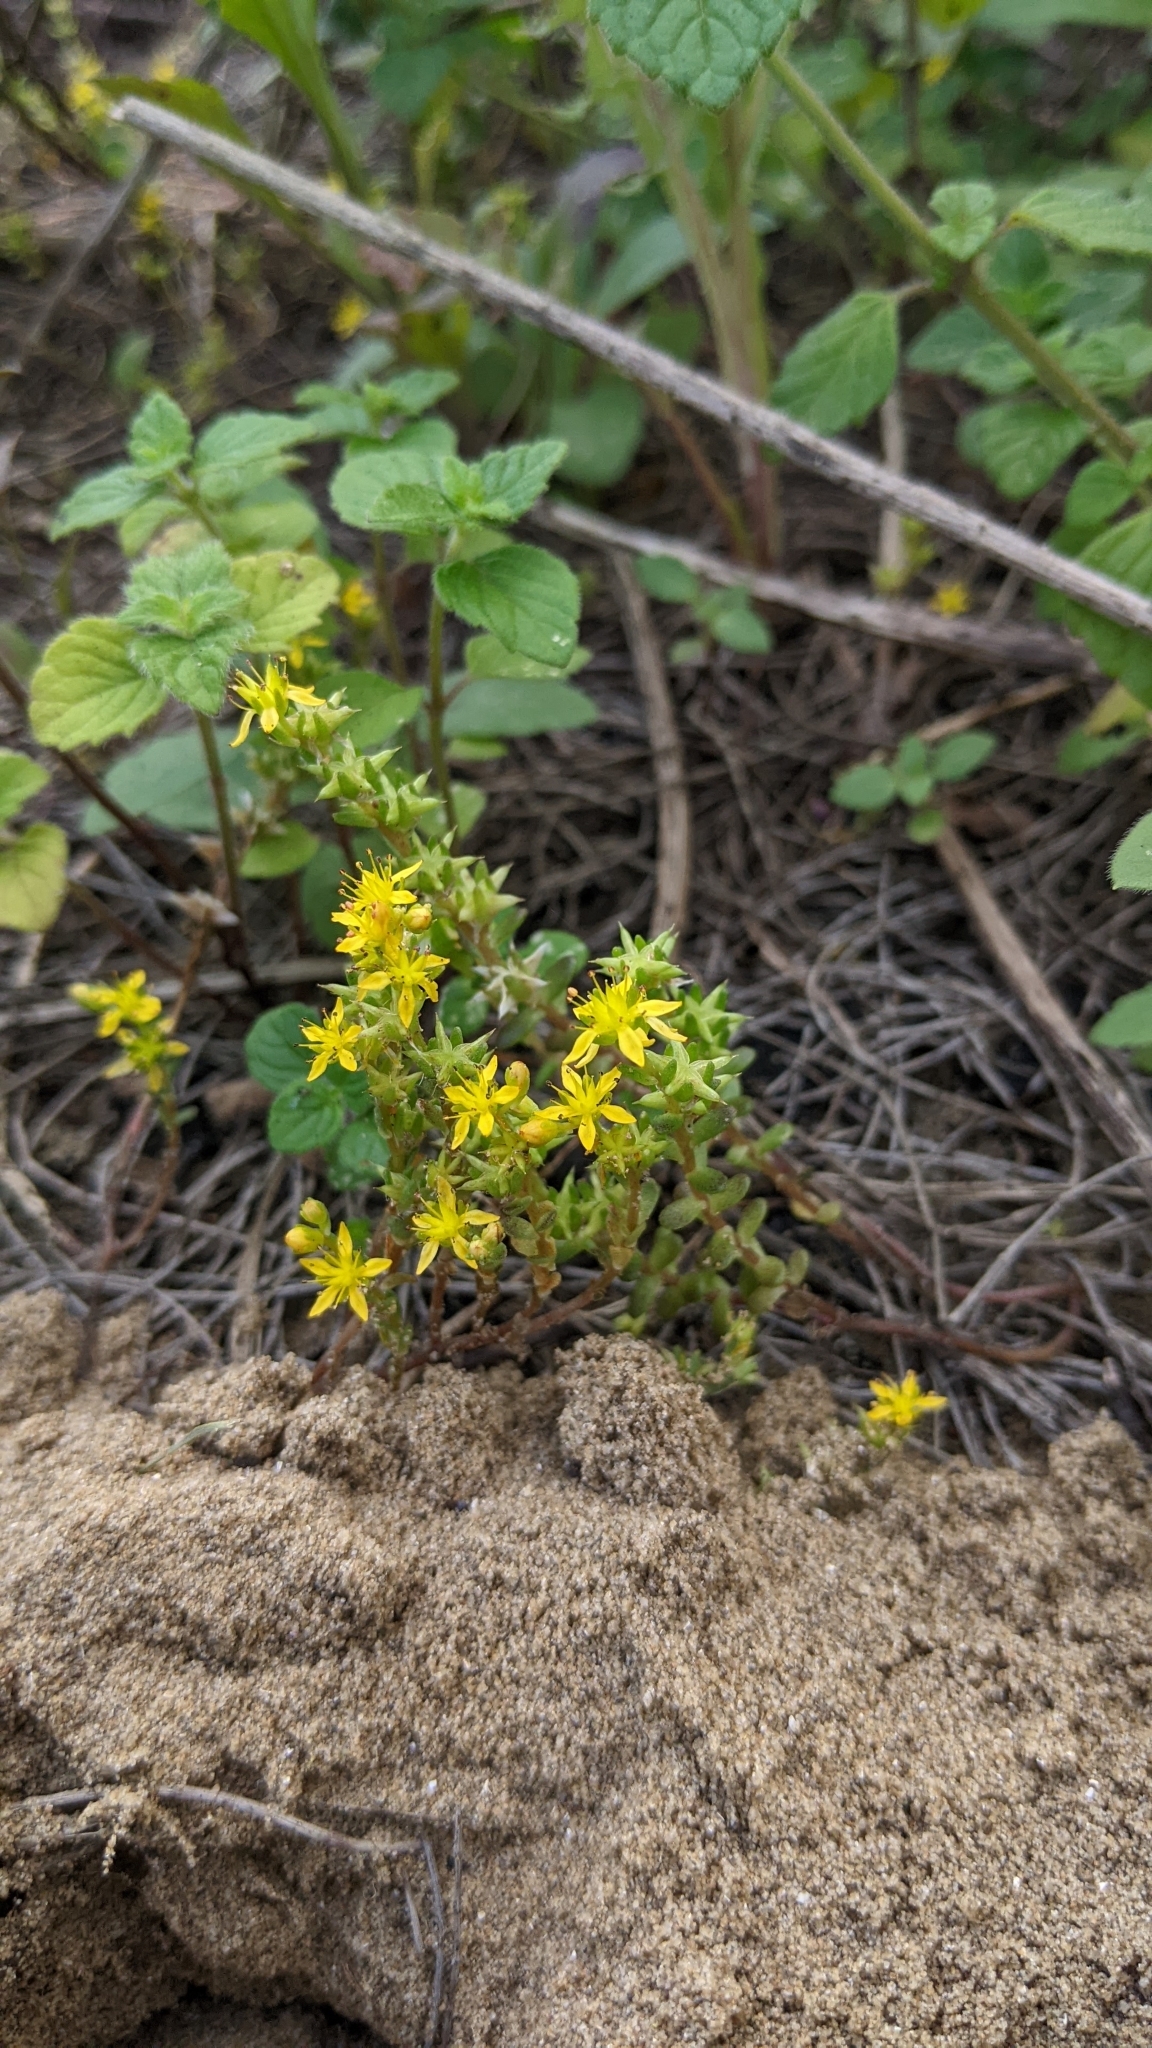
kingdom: Plantae
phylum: Tracheophyta
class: Magnoliopsida
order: Saxifragales
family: Crassulaceae
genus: Sedum
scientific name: Sedum japonicum
